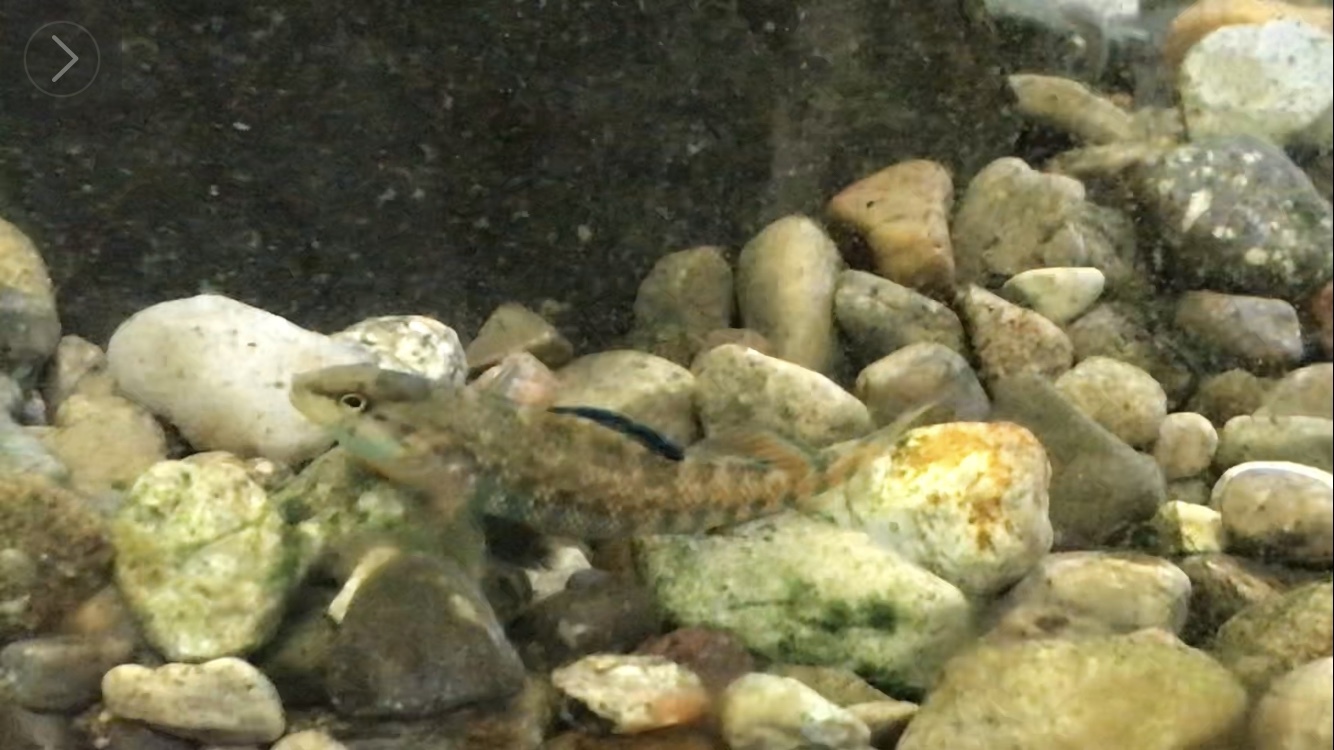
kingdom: Animalia
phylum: Chordata
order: Perciformes
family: Percidae
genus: Etheostoma
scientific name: Etheostoma caeruleum
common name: Rainbow darter
